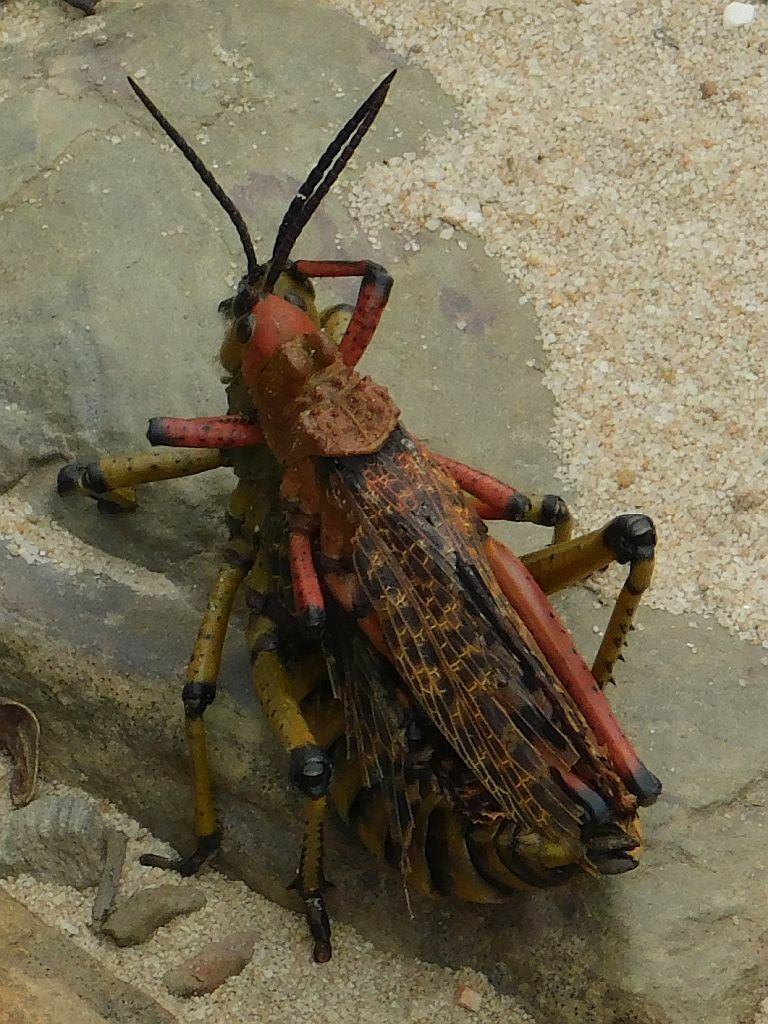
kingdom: Animalia
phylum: Arthropoda
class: Insecta
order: Orthoptera
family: Pyrgomorphidae
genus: Phymateus
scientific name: Phymateus leprosus
